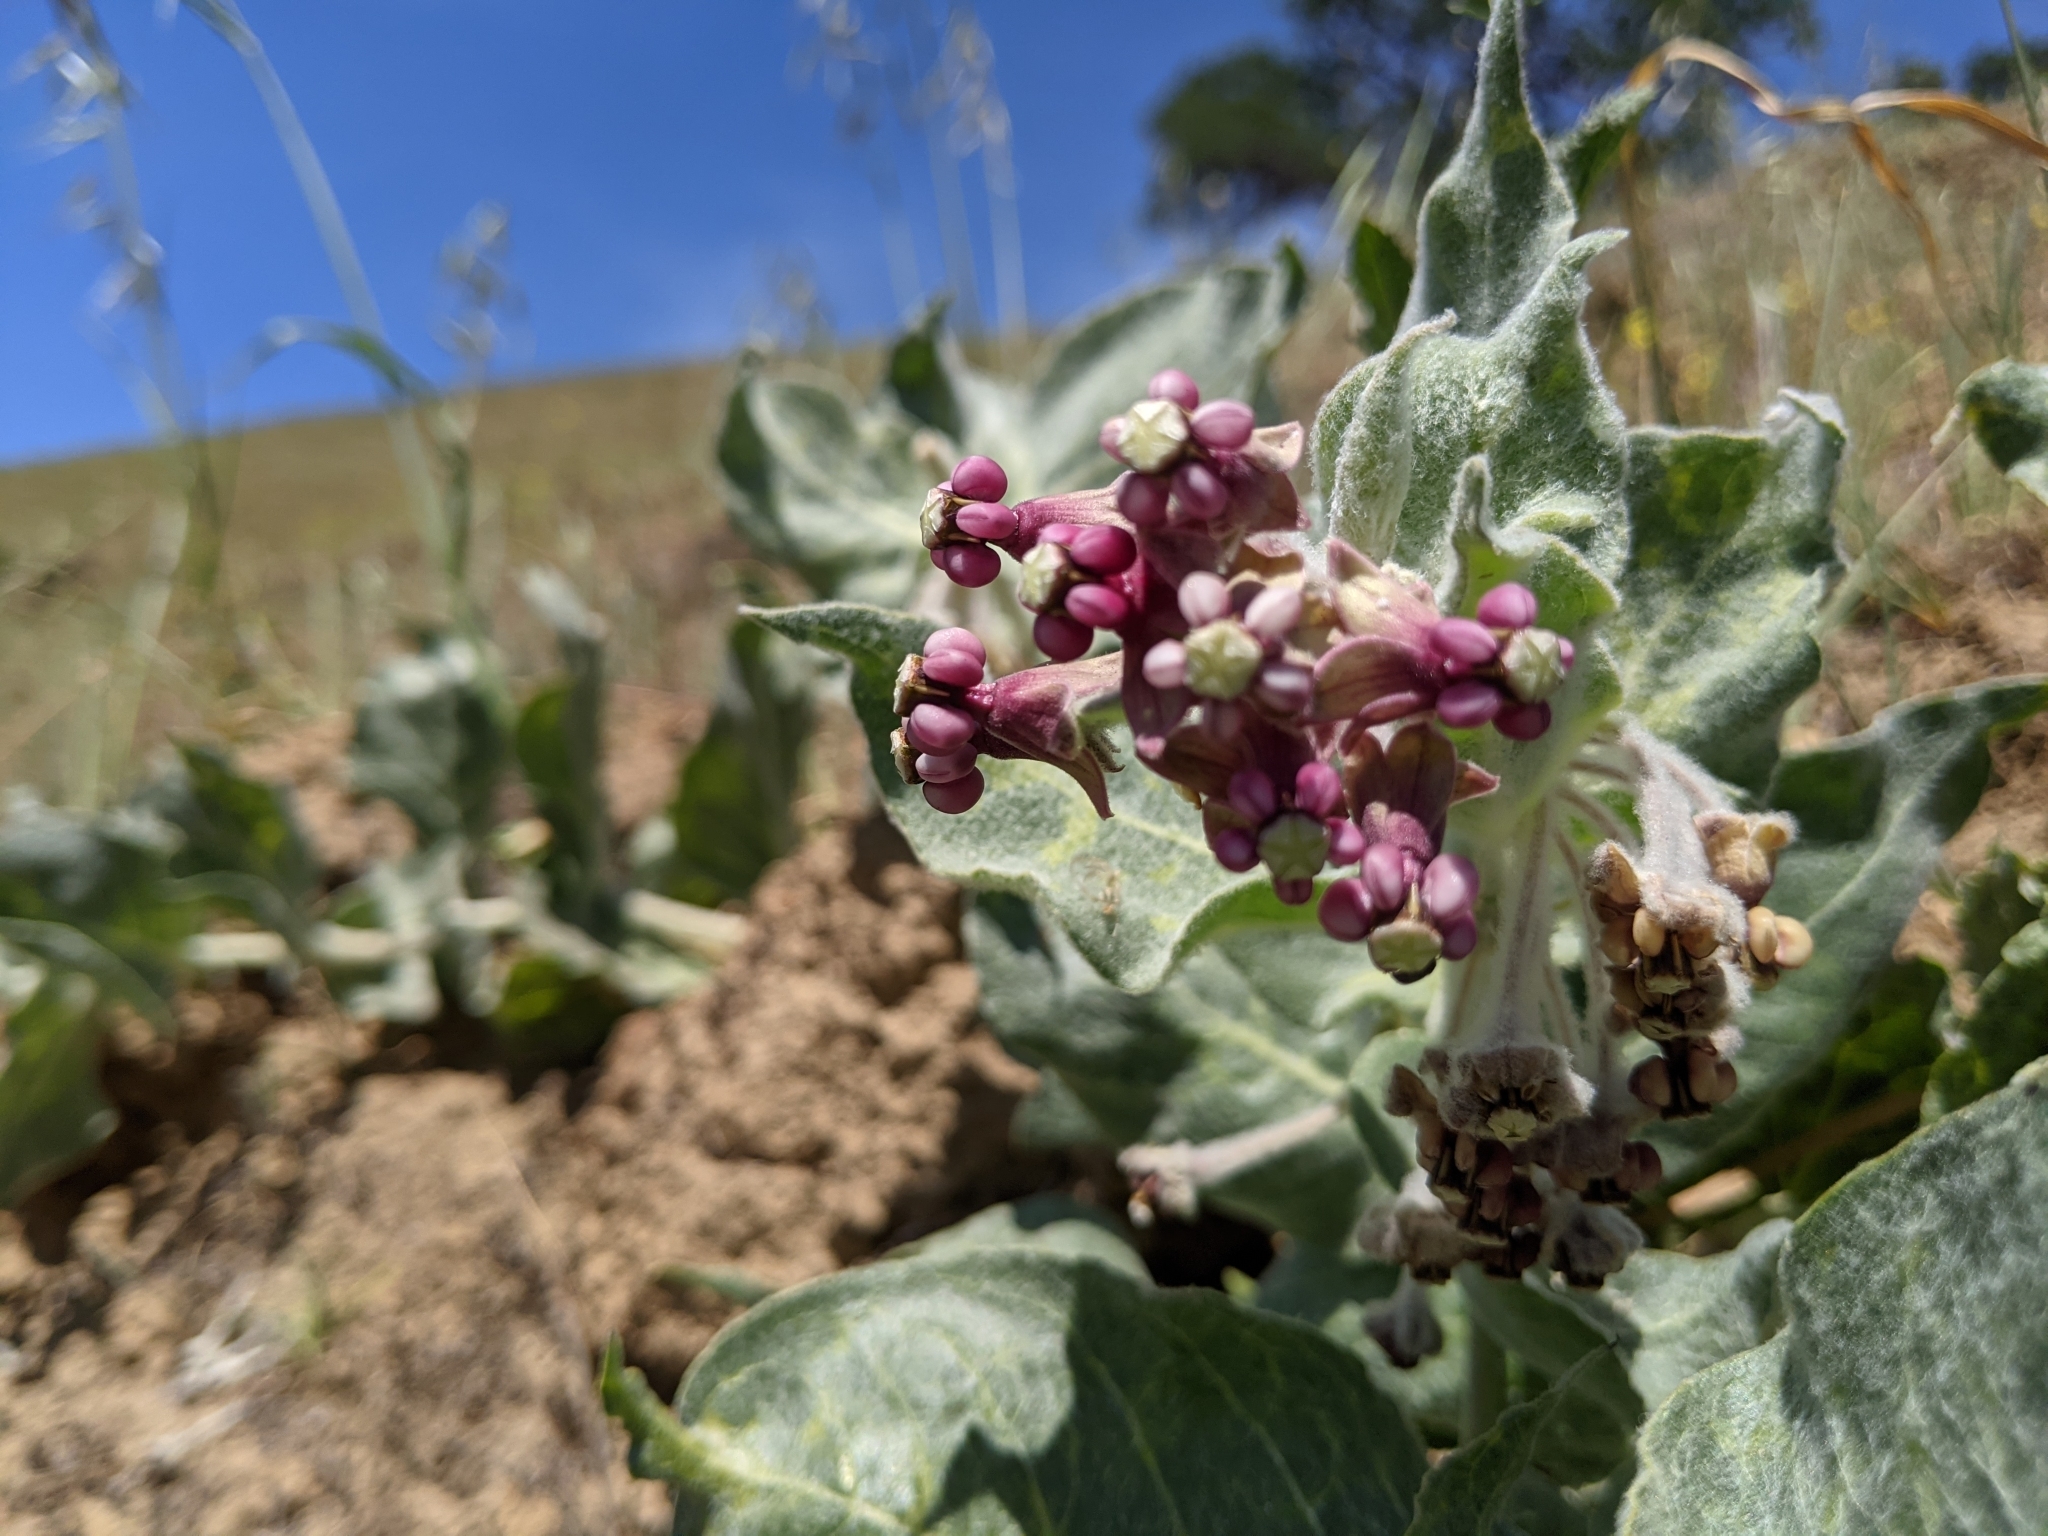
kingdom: Plantae
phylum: Tracheophyta
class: Magnoliopsida
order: Gentianales
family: Apocynaceae
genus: Asclepias
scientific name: Asclepias californica
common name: California milkweed
